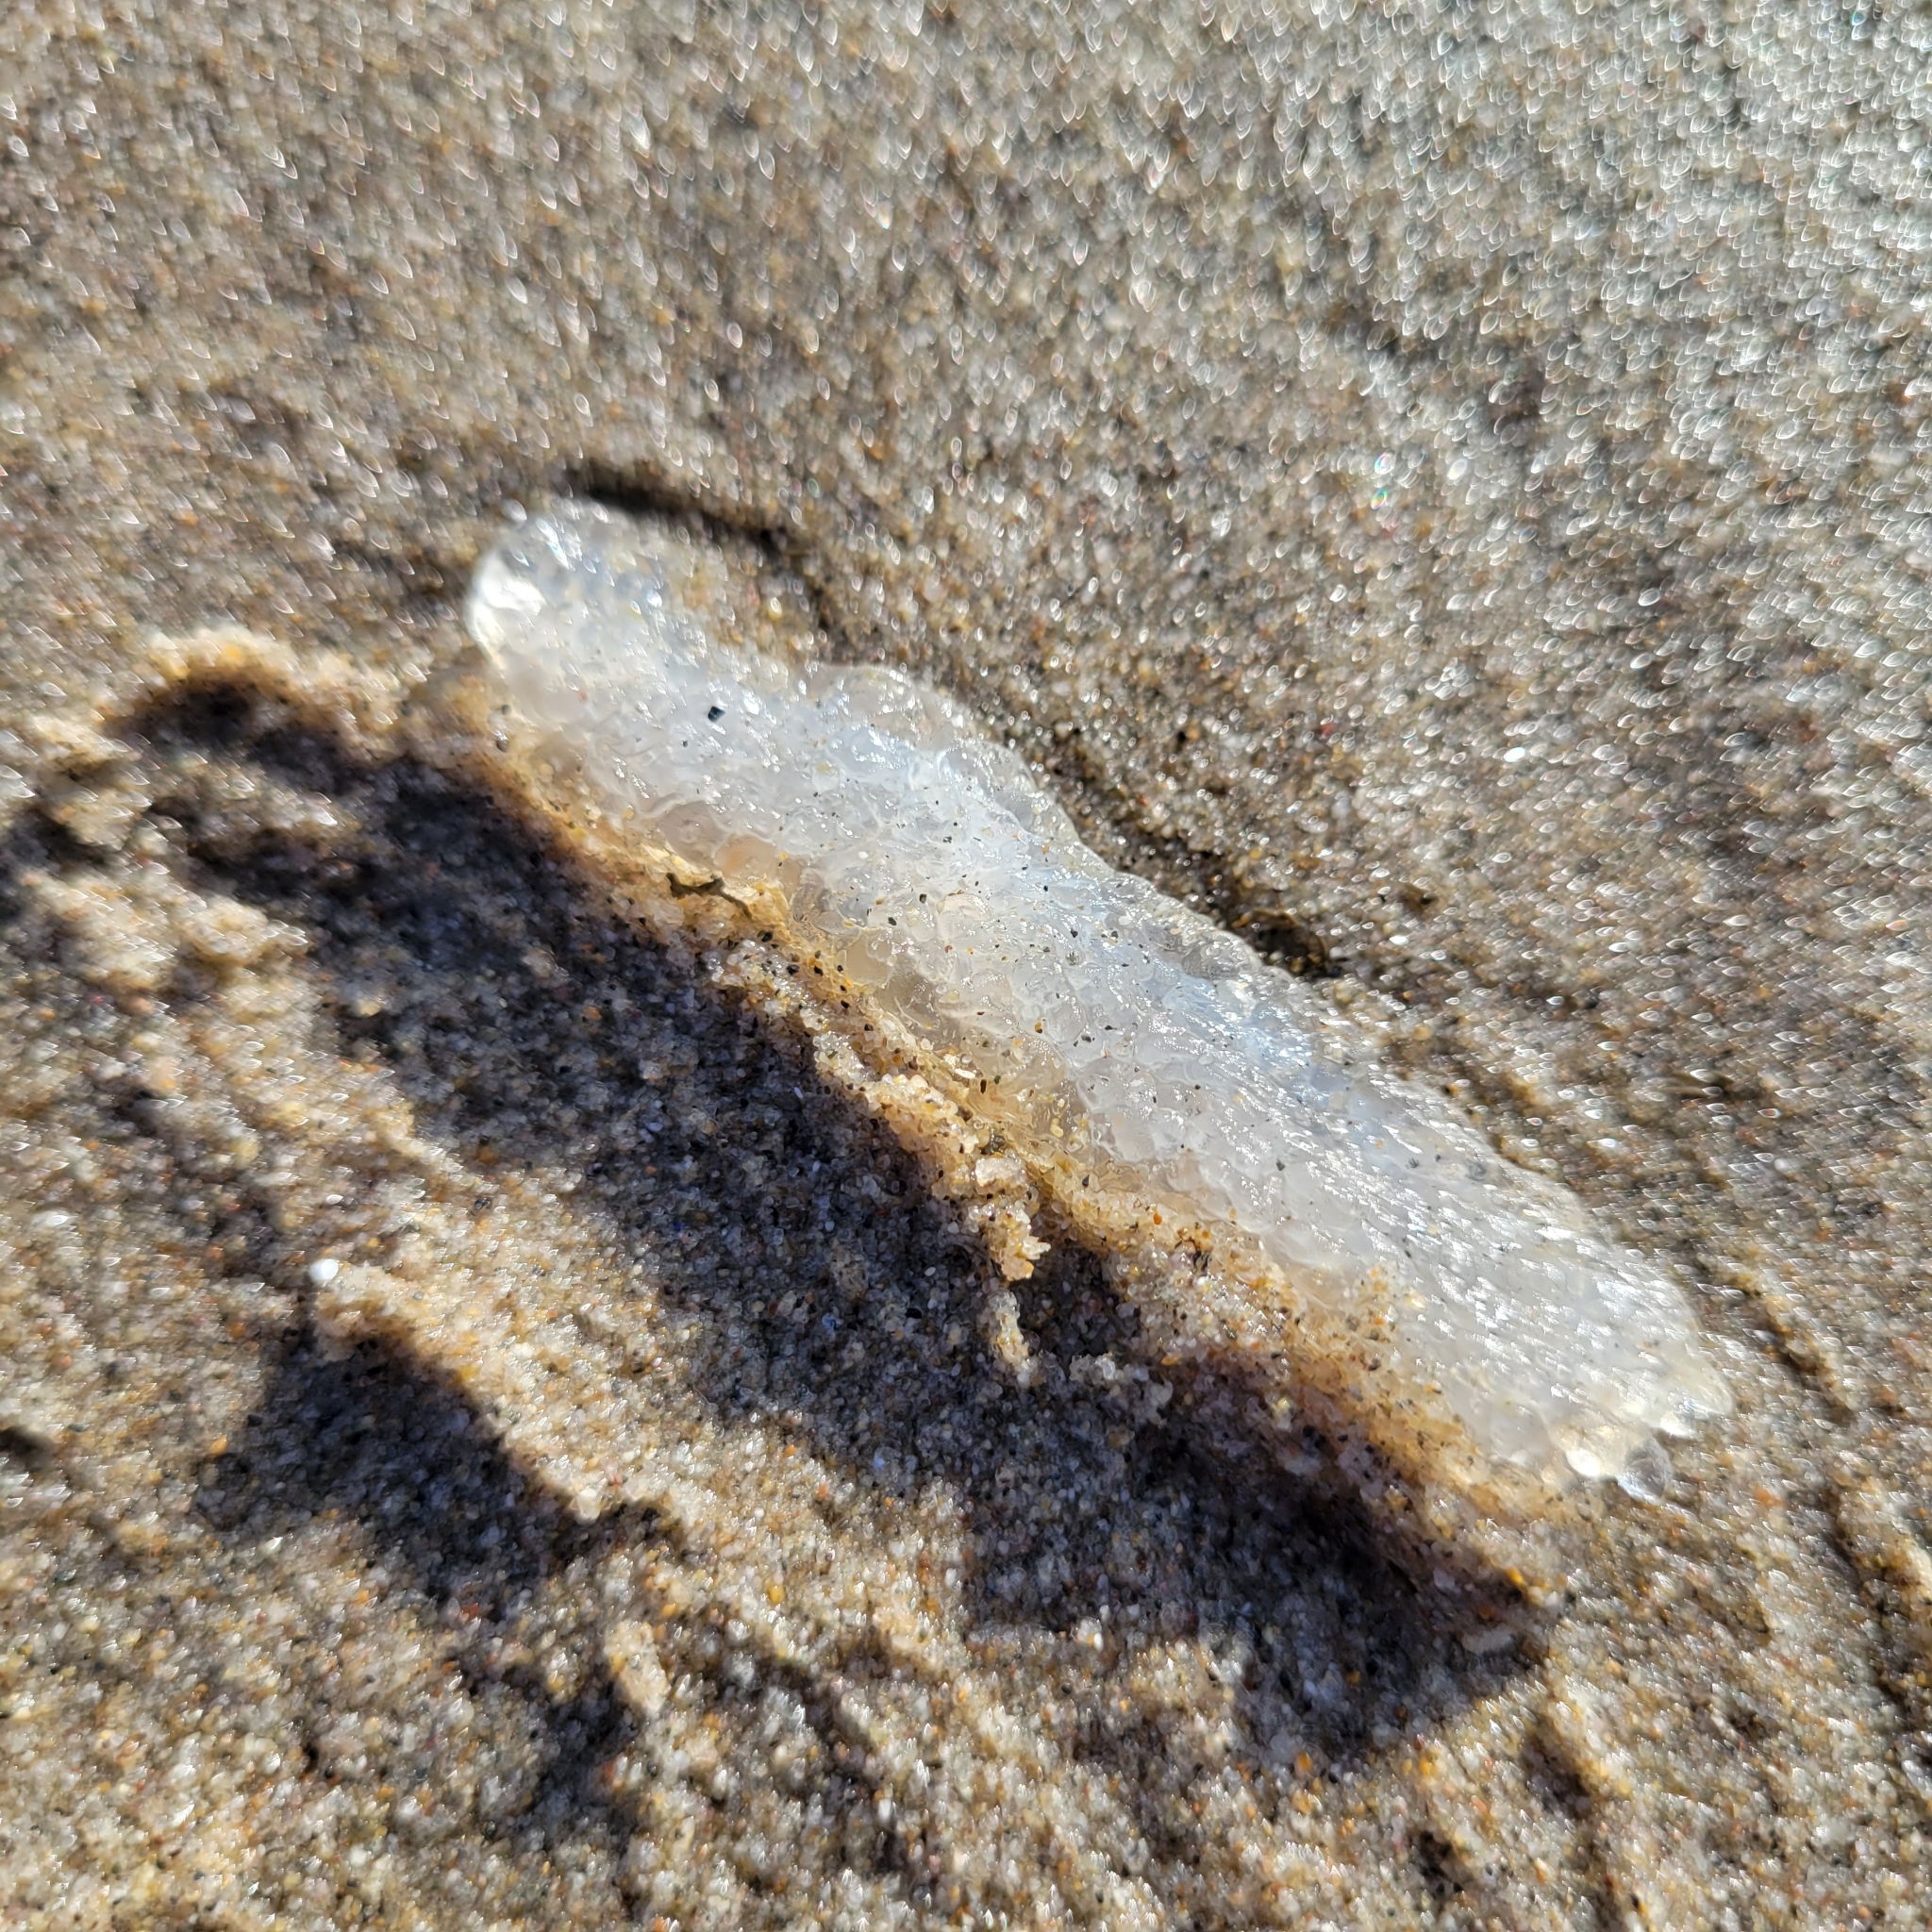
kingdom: Animalia
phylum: Chordata
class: Thaliacea
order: Pyrosomatida
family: Pyrosomatidae
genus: Pyrosoma
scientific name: Pyrosoma atlanticum
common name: Atlantic pyrosomes
